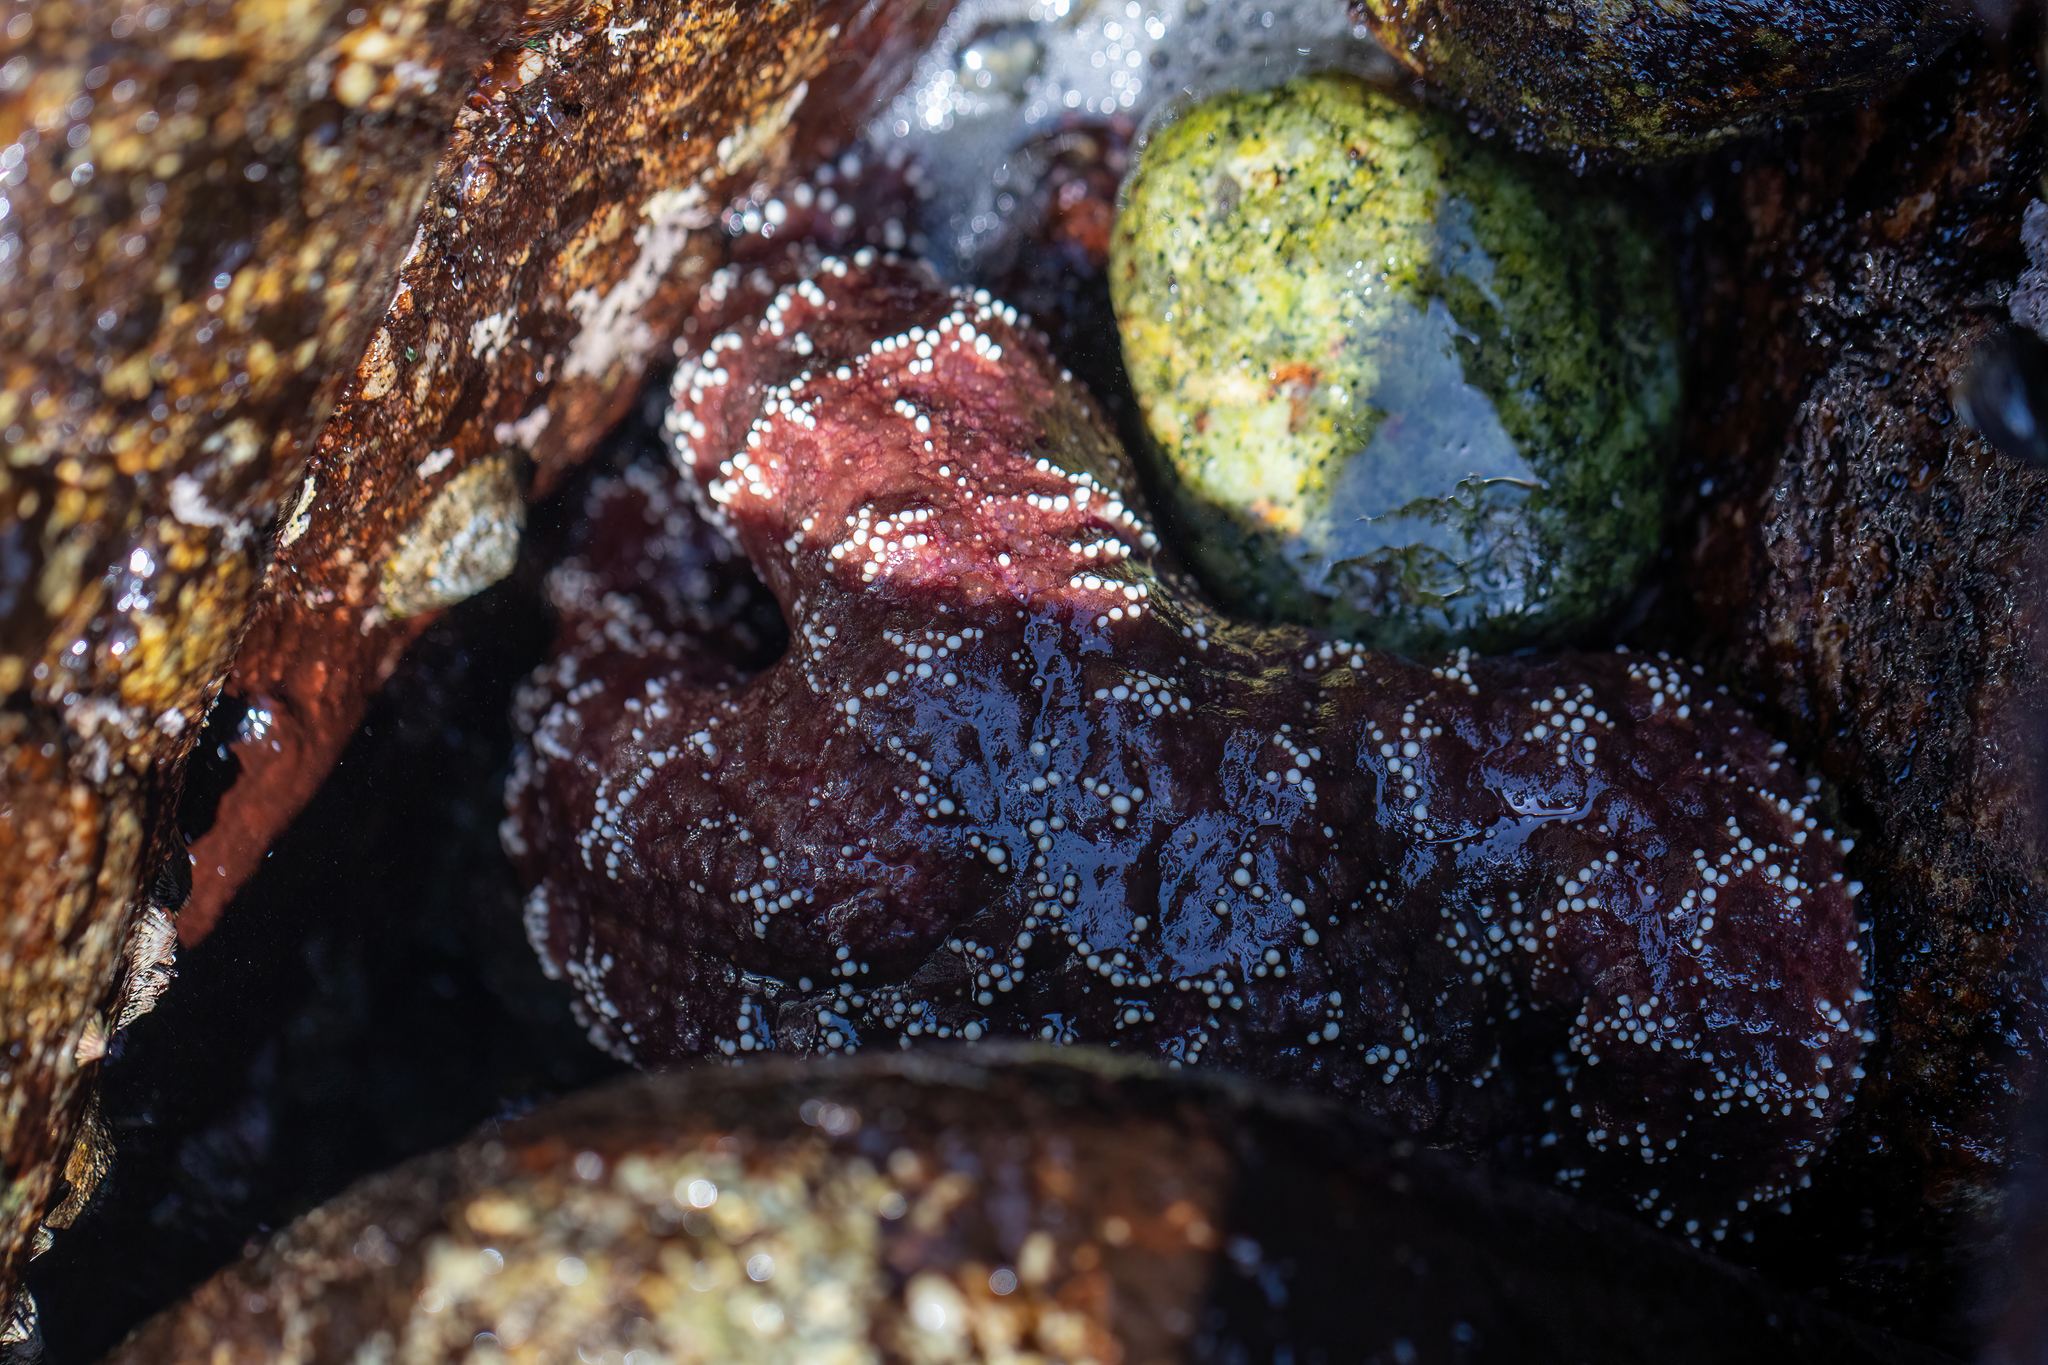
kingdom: Animalia
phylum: Echinodermata
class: Asteroidea
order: Forcipulatida
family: Asteriidae
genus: Pisaster
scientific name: Pisaster ochraceus
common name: Ochre stars
